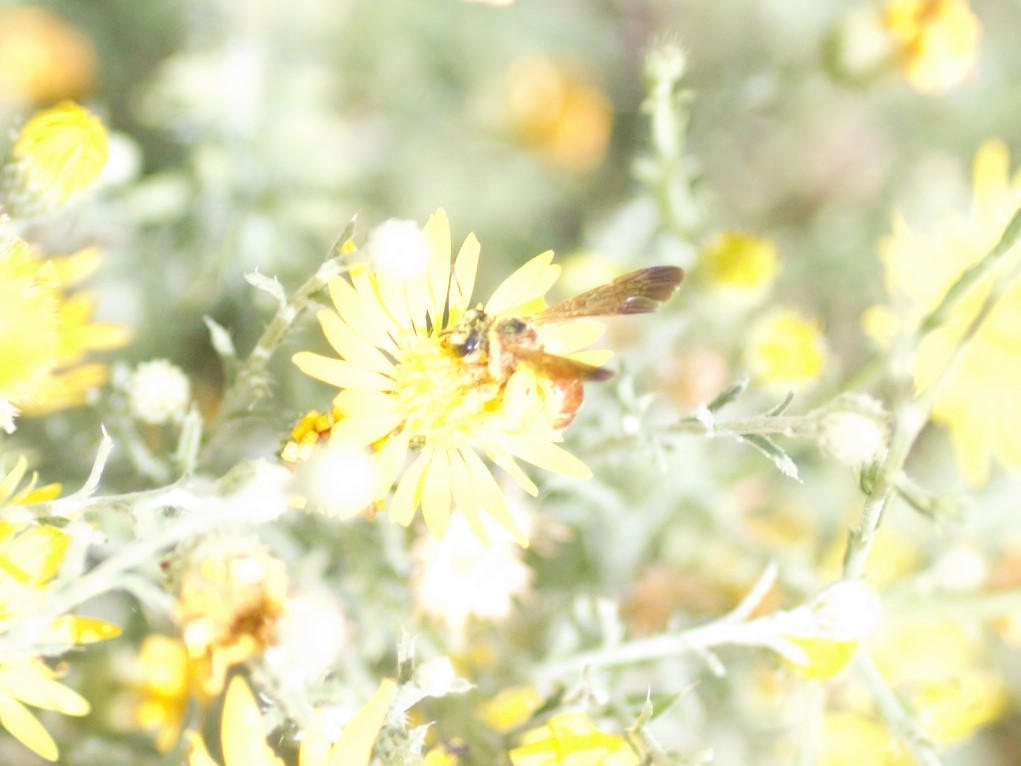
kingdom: Animalia
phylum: Arthropoda
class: Insecta
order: Hymenoptera
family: Halictidae
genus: Dieunomia
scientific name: Dieunomia nevadensis
